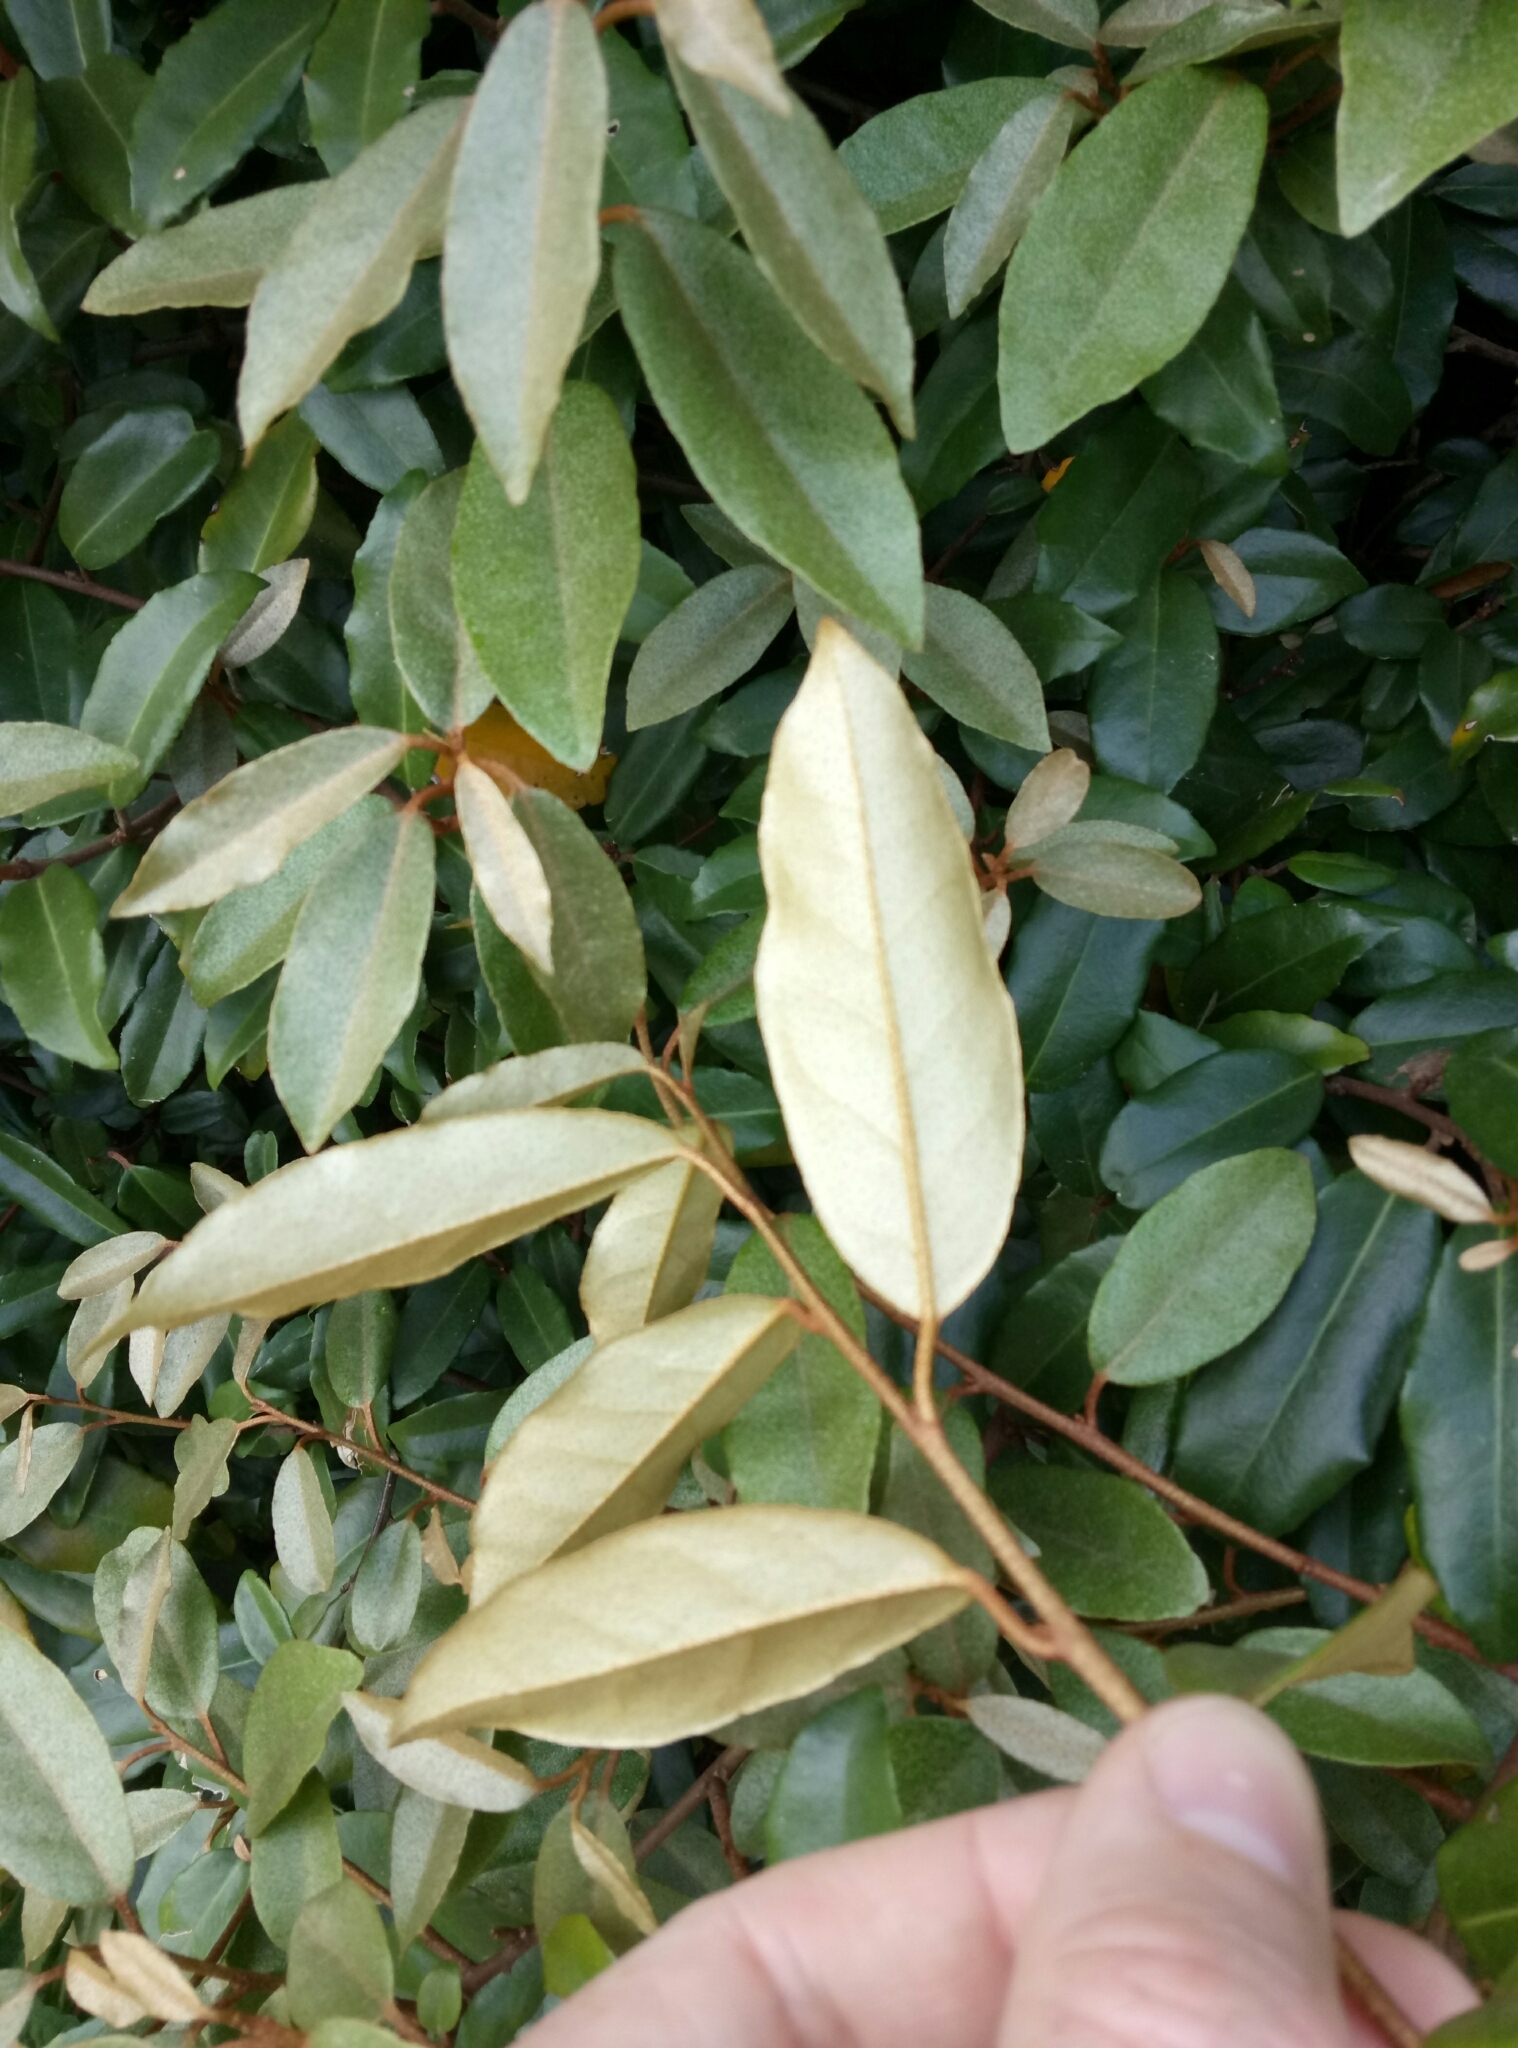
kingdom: Plantae
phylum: Tracheophyta
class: Magnoliopsida
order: Rosales
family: Elaeagnaceae
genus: Elaeagnus
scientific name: Elaeagnus pungens
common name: Spiny oleaster
